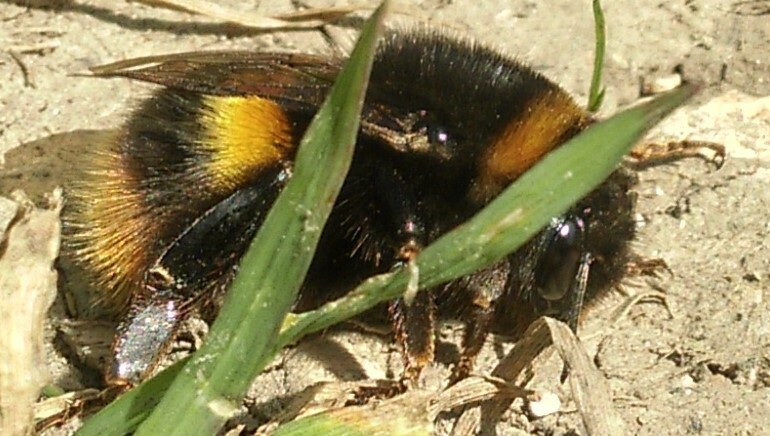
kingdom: Animalia
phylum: Arthropoda
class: Insecta
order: Hymenoptera
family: Apidae
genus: Bombus
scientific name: Bombus terrestris
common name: Buff-tailed bumblebee
